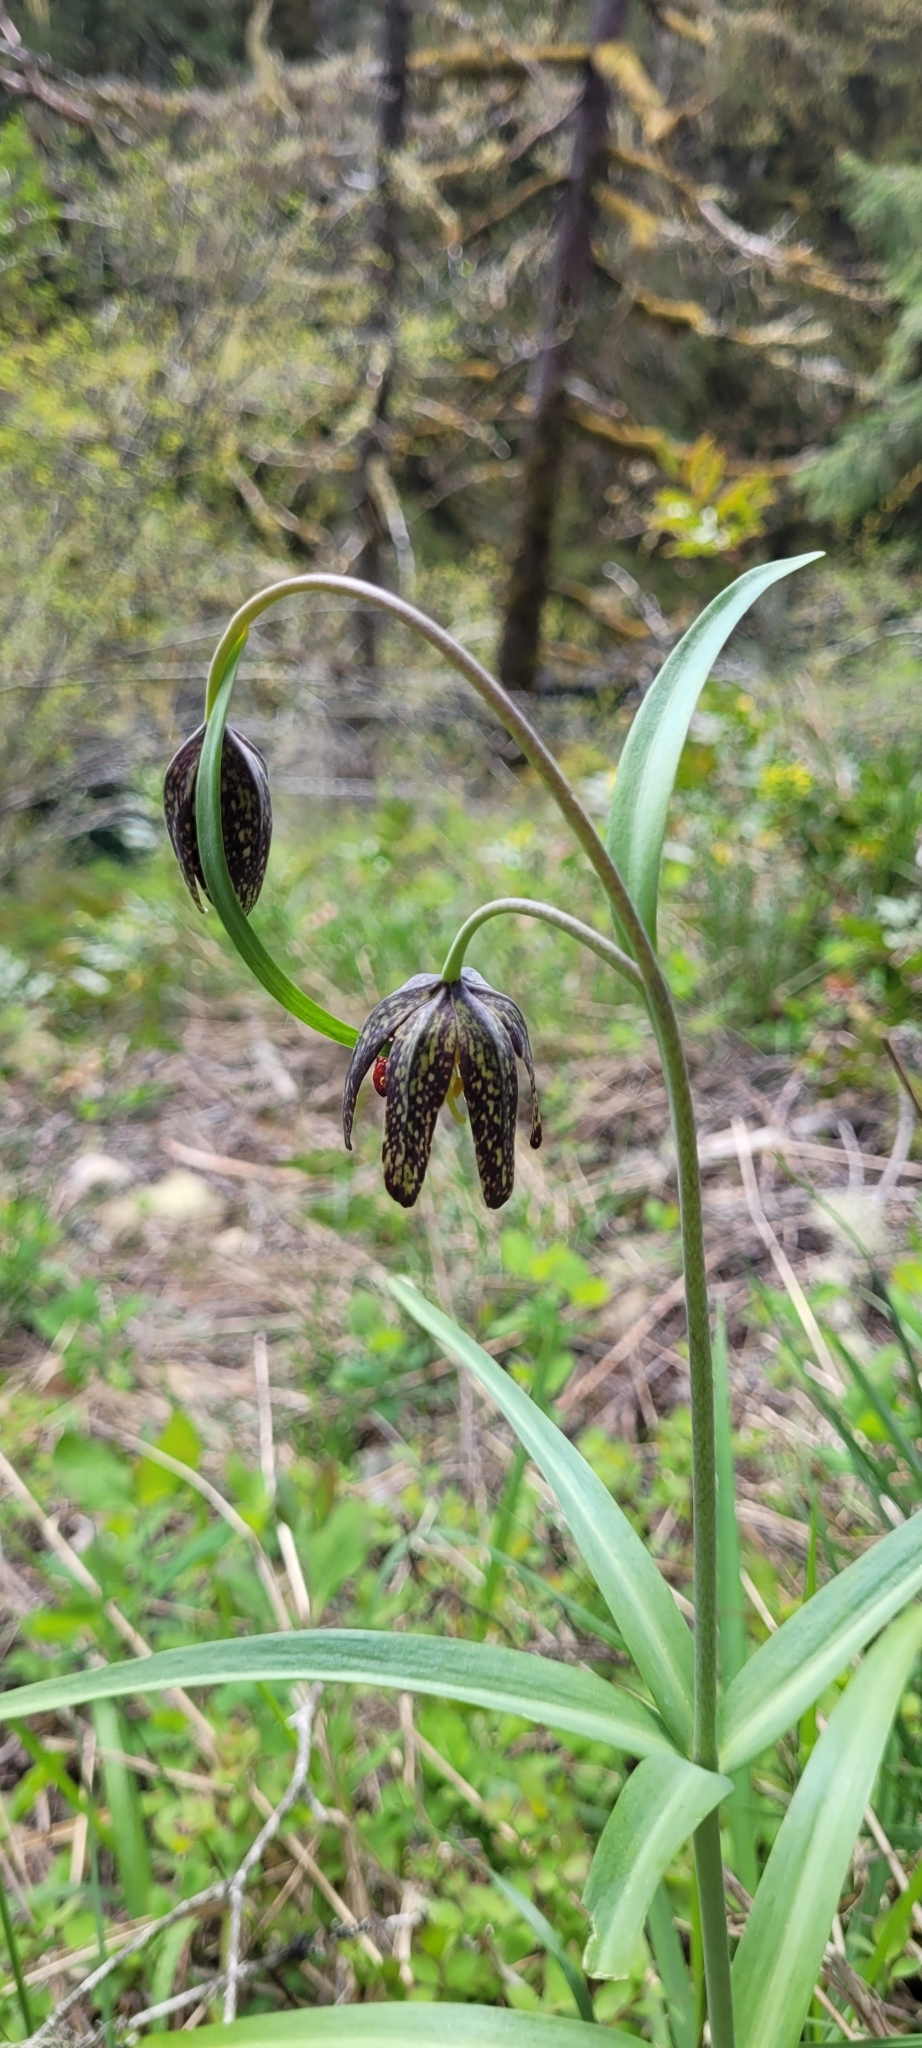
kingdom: Plantae
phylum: Tracheophyta
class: Liliopsida
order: Liliales
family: Liliaceae
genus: Fritillaria
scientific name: Fritillaria affinis
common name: Ojai fritillary
